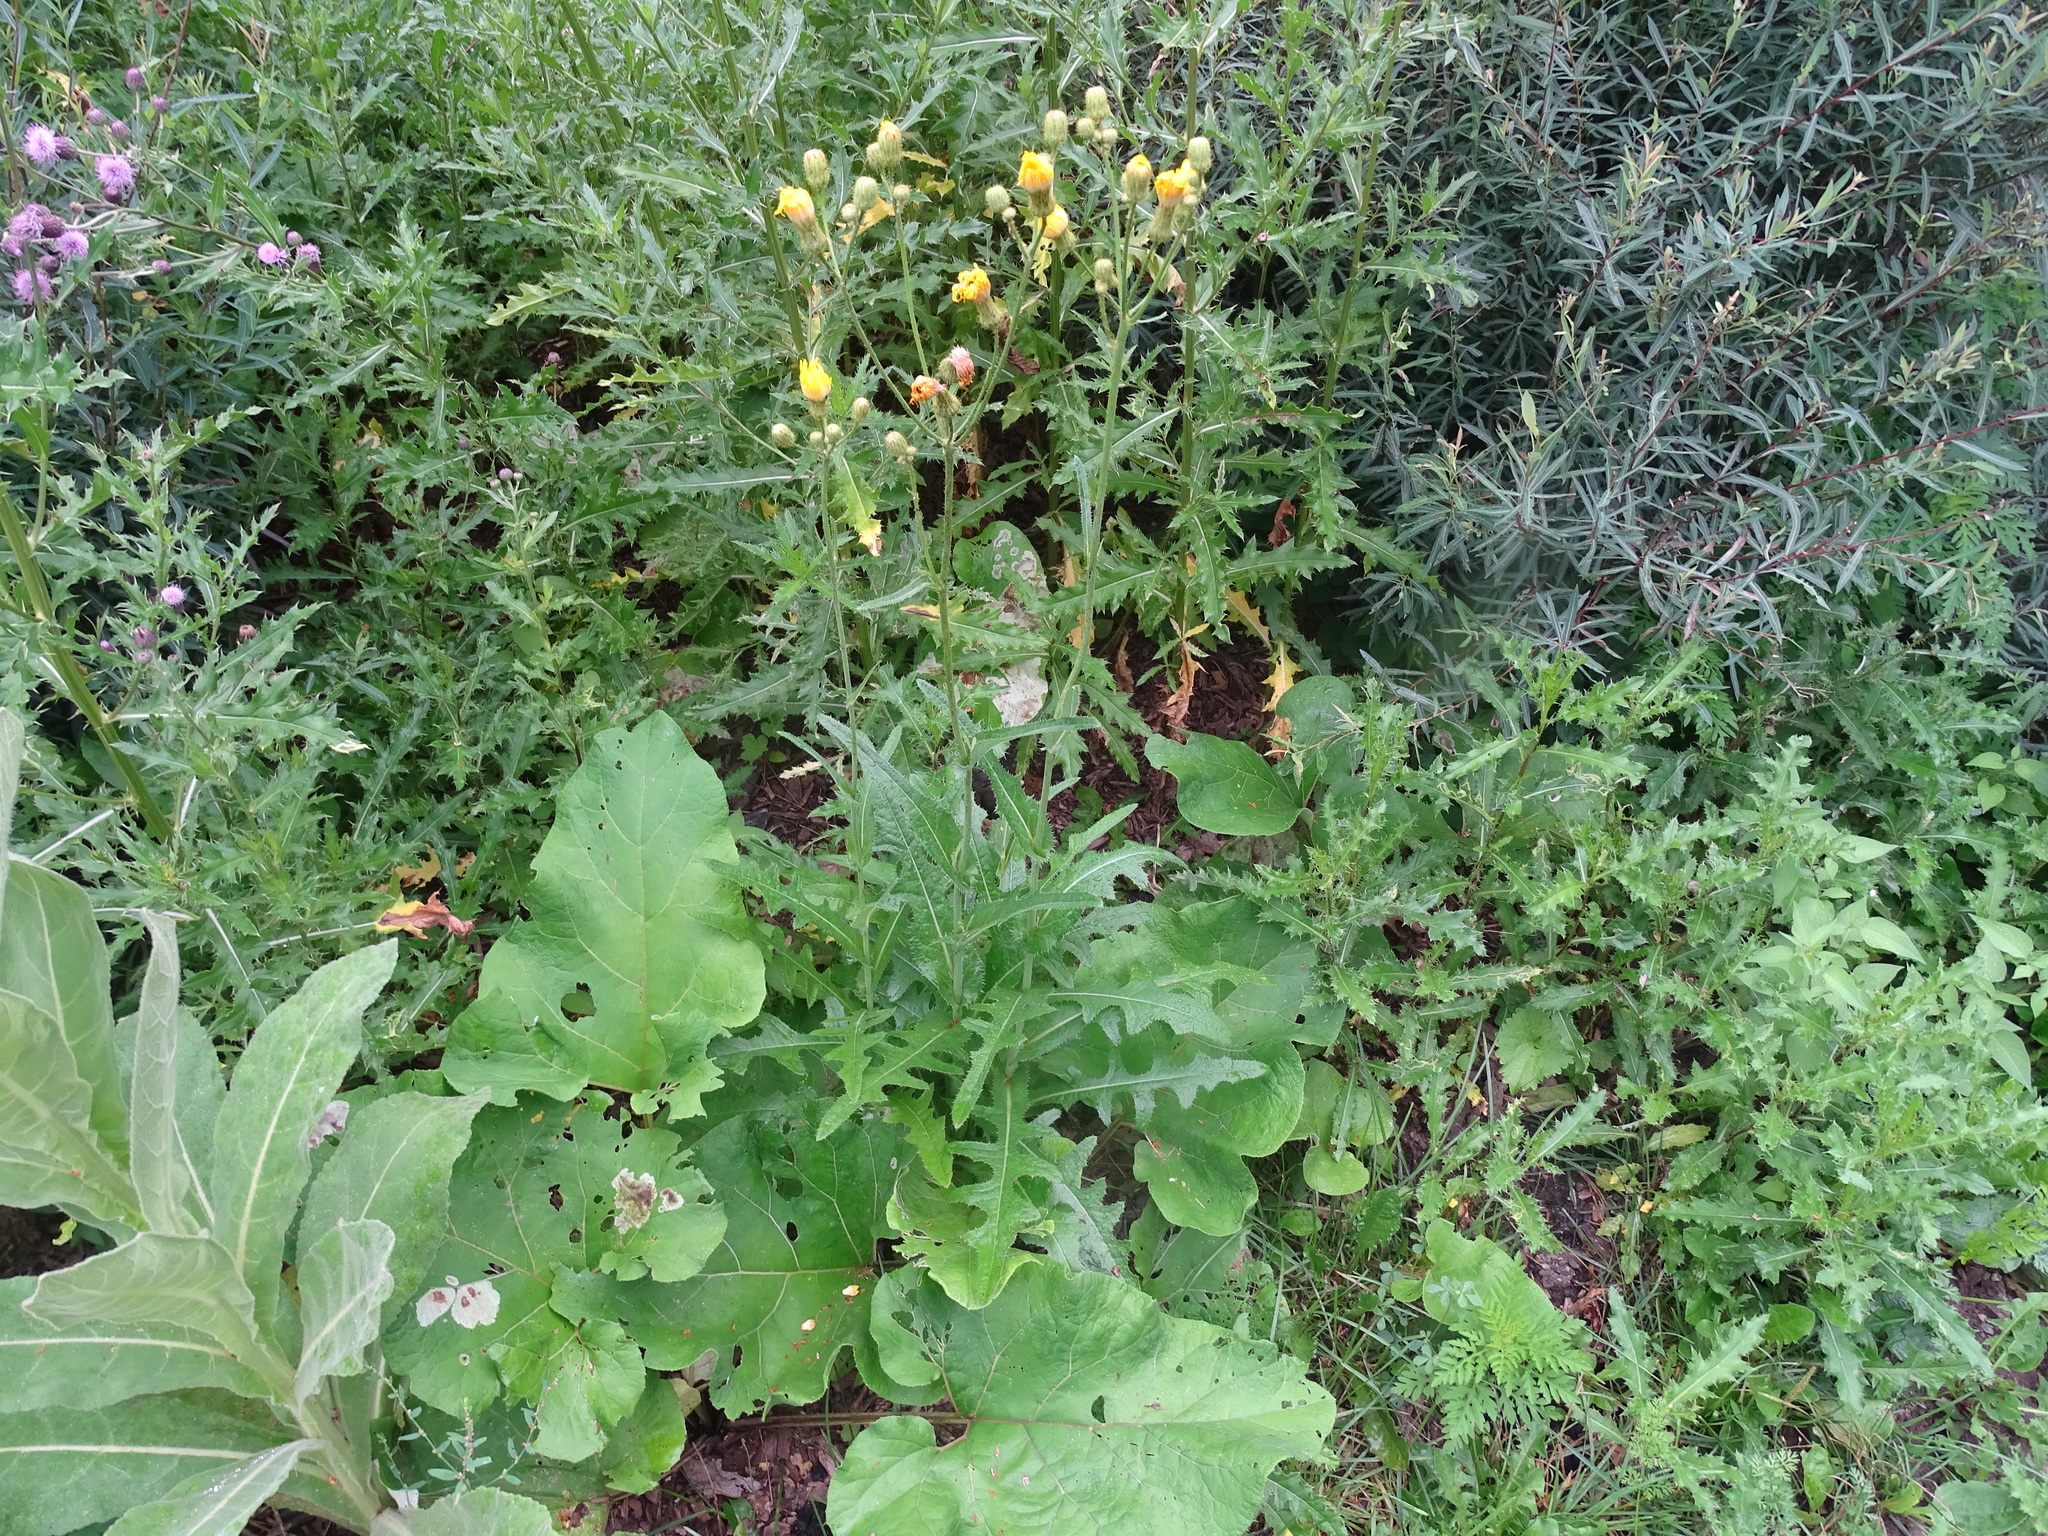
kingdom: Plantae
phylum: Tracheophyta
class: Magnoliopsida
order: Asterales
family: Asteraceae
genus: Sonchus
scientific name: Sonchus arvensis
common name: Perennial sow-thistle
